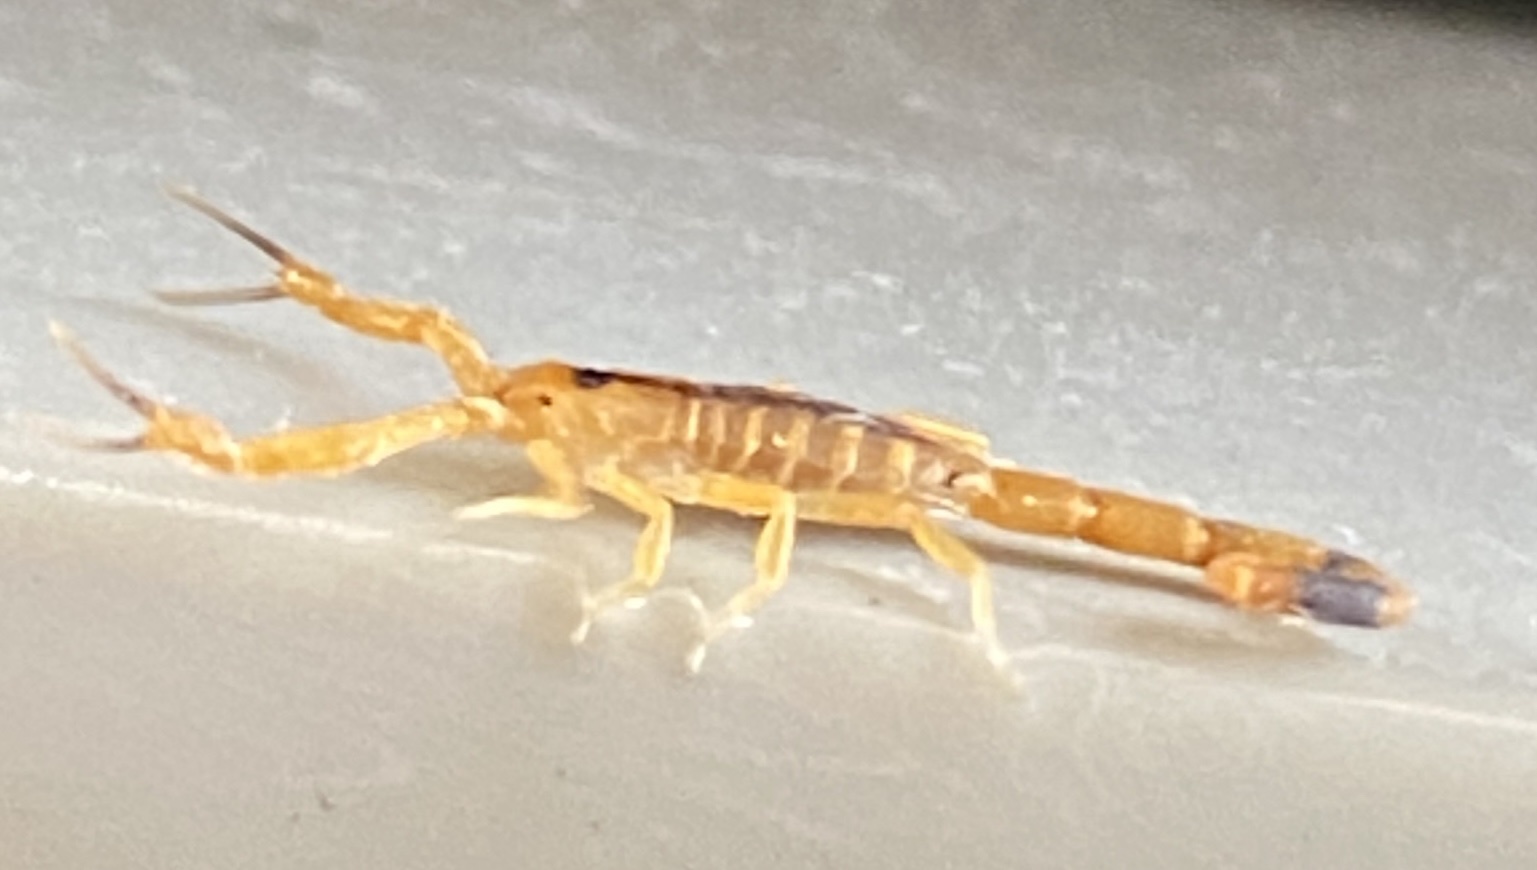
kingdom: Animalia
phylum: Arthropoda
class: Arachnida
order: Scorpiones
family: Buthidae
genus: Uroplectes
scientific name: Uroplectes otjimbinguensis
